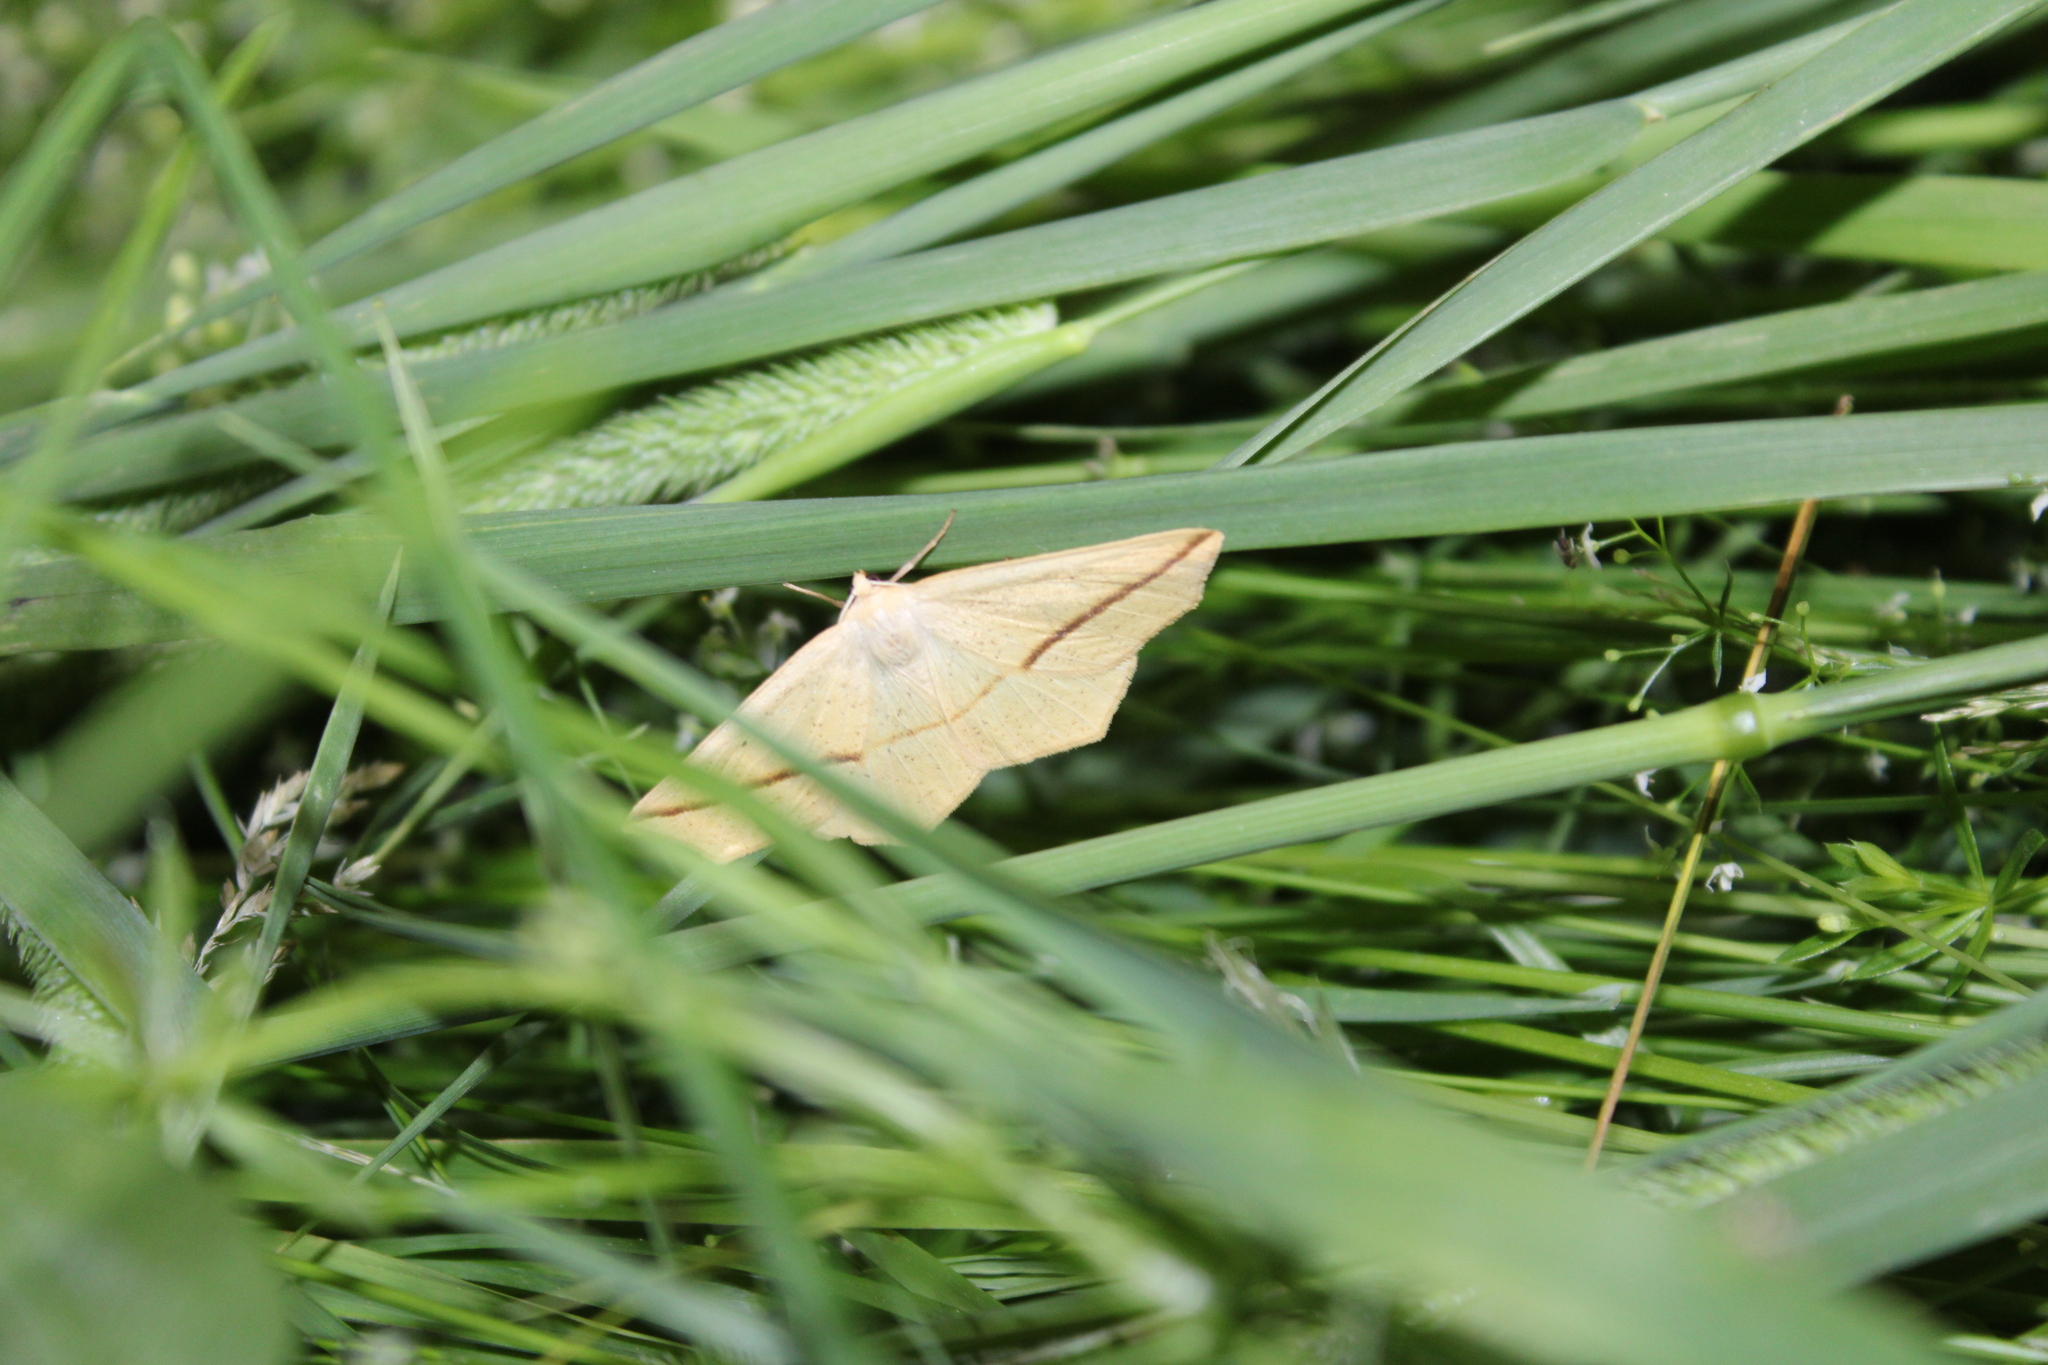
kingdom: Animalia
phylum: Arthropoda
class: Insecta
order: Lepidoptera
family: Geometridae
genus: Tetracis
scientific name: Tetracis crocallata
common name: Yellow slant-line
